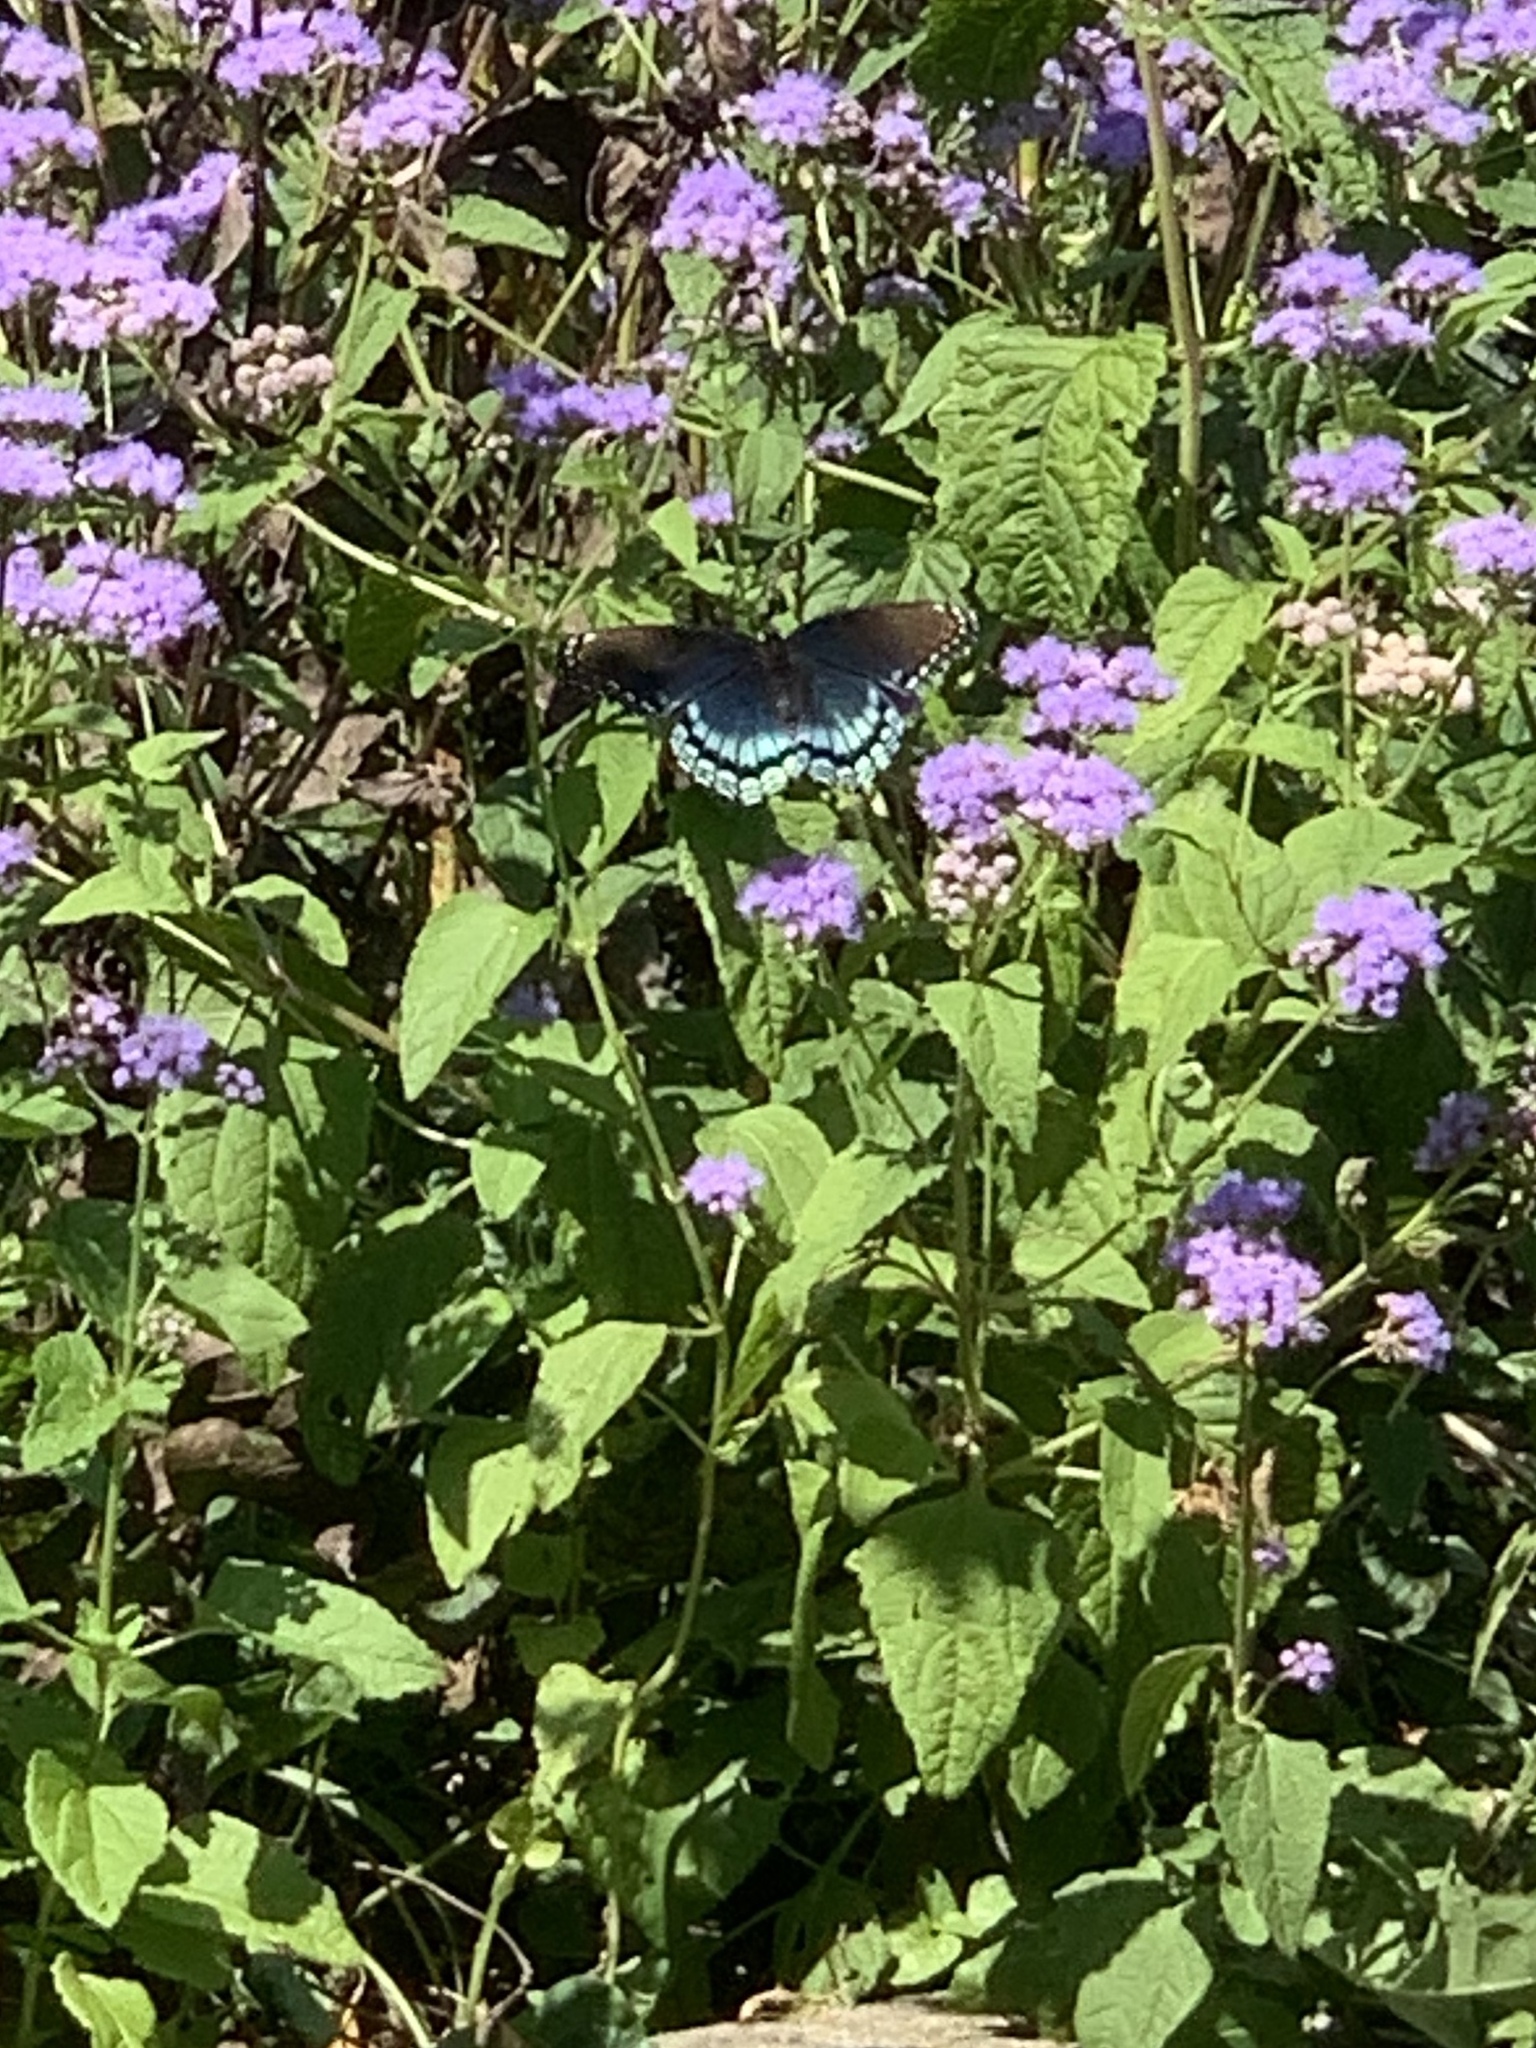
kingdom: Animalia
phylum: Arthropoda
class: Insecta
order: Lepidoptera
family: Nymphalidae
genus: Limenitis
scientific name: Limenitis astyanax
